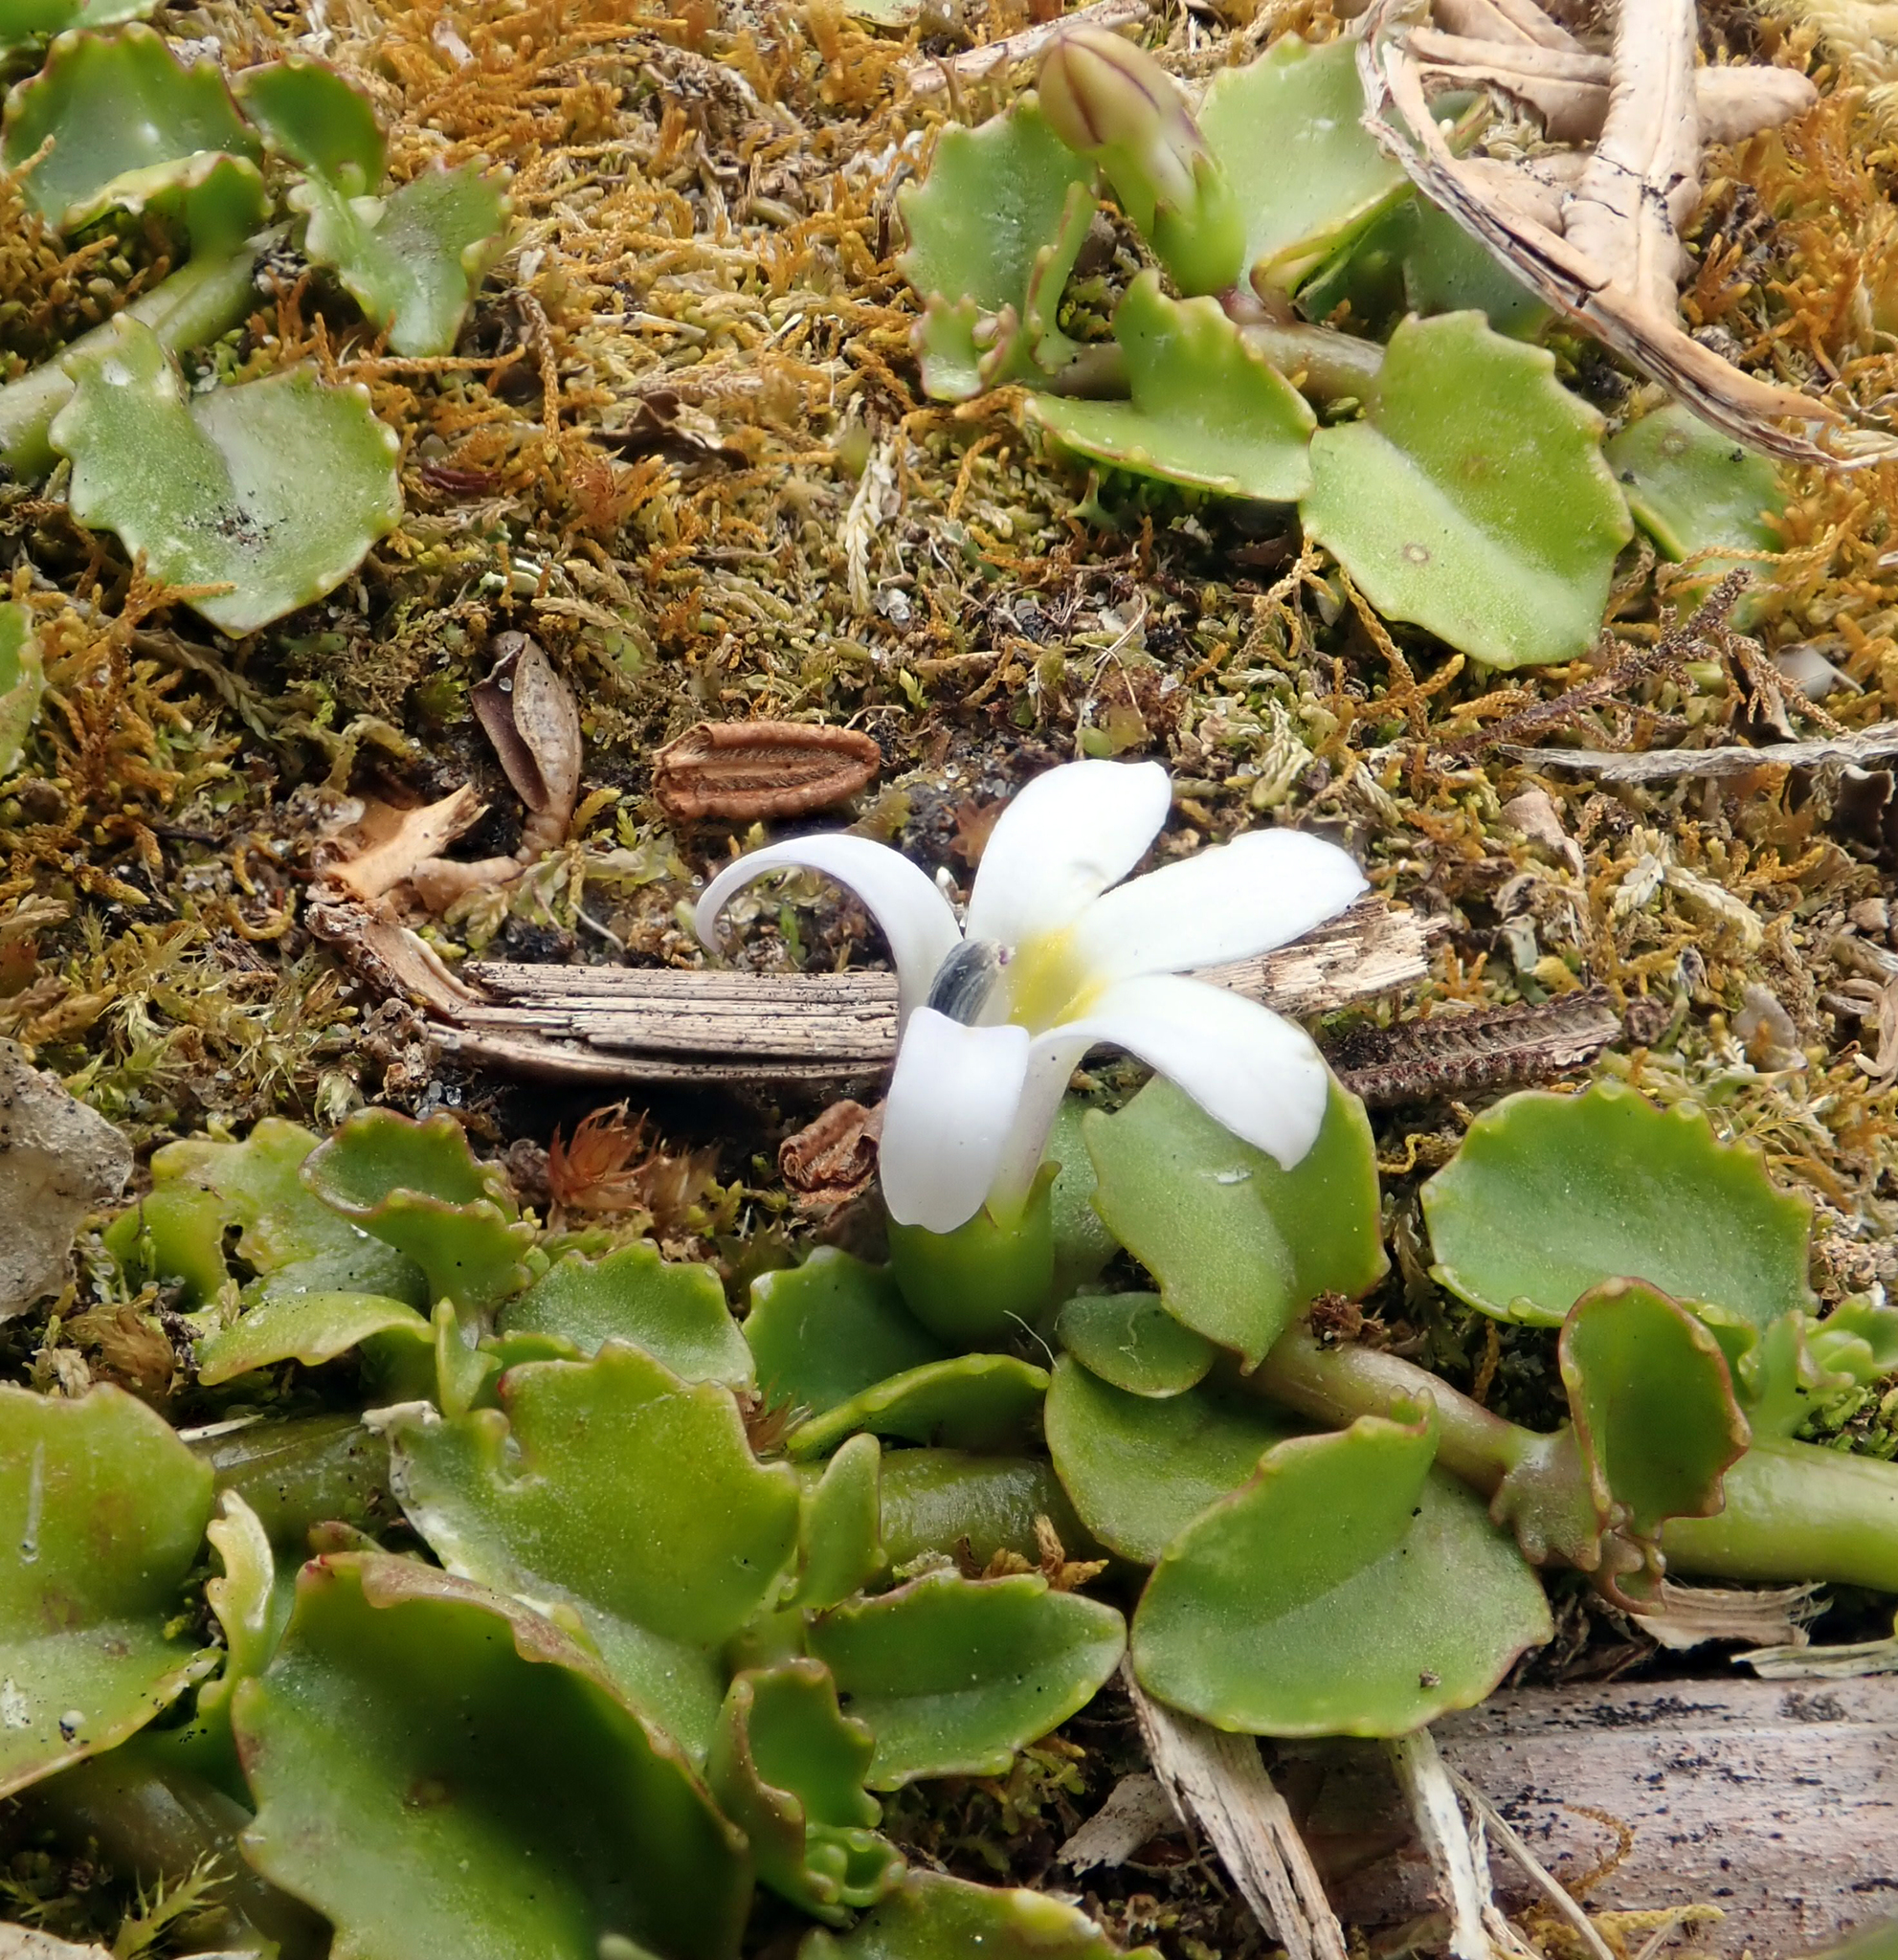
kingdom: Plantae
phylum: Tracheophyta
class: Magnoliopsida
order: Asterales
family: Campanulaceae
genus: Lobelia
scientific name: Lobelia arenaria
